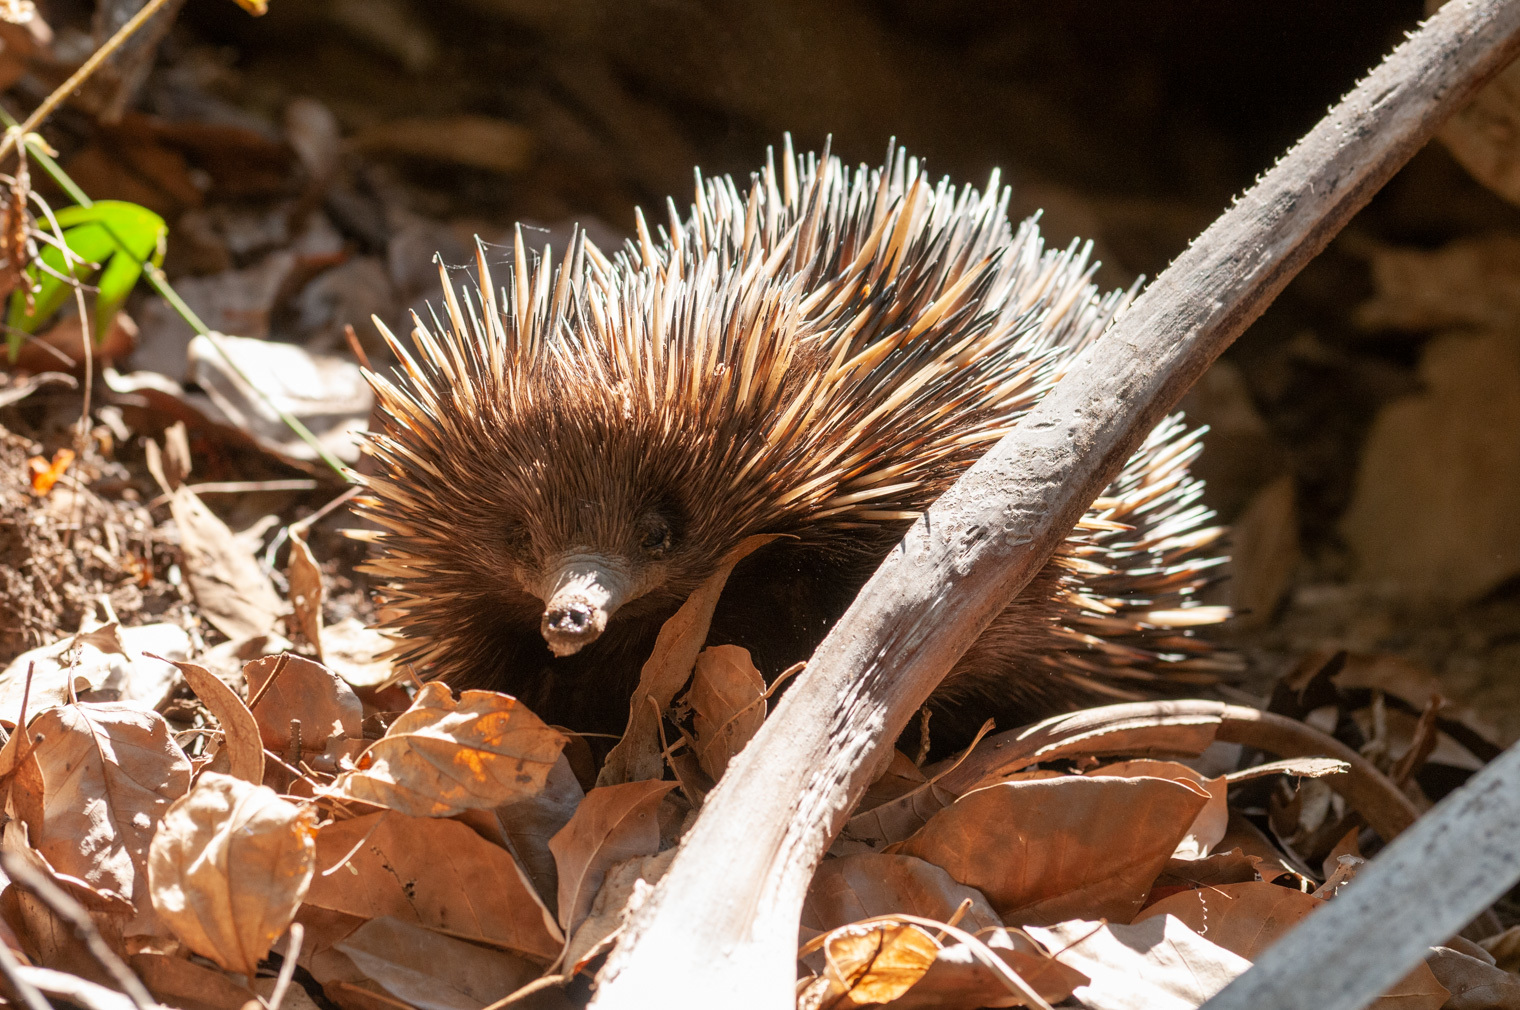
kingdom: Animalia
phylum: Chordata
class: Mammalia
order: Monotremata
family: Tachyglossidae
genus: Tachyglossus
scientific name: Tachyglossus aculeatus
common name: Short-beaked echidna
